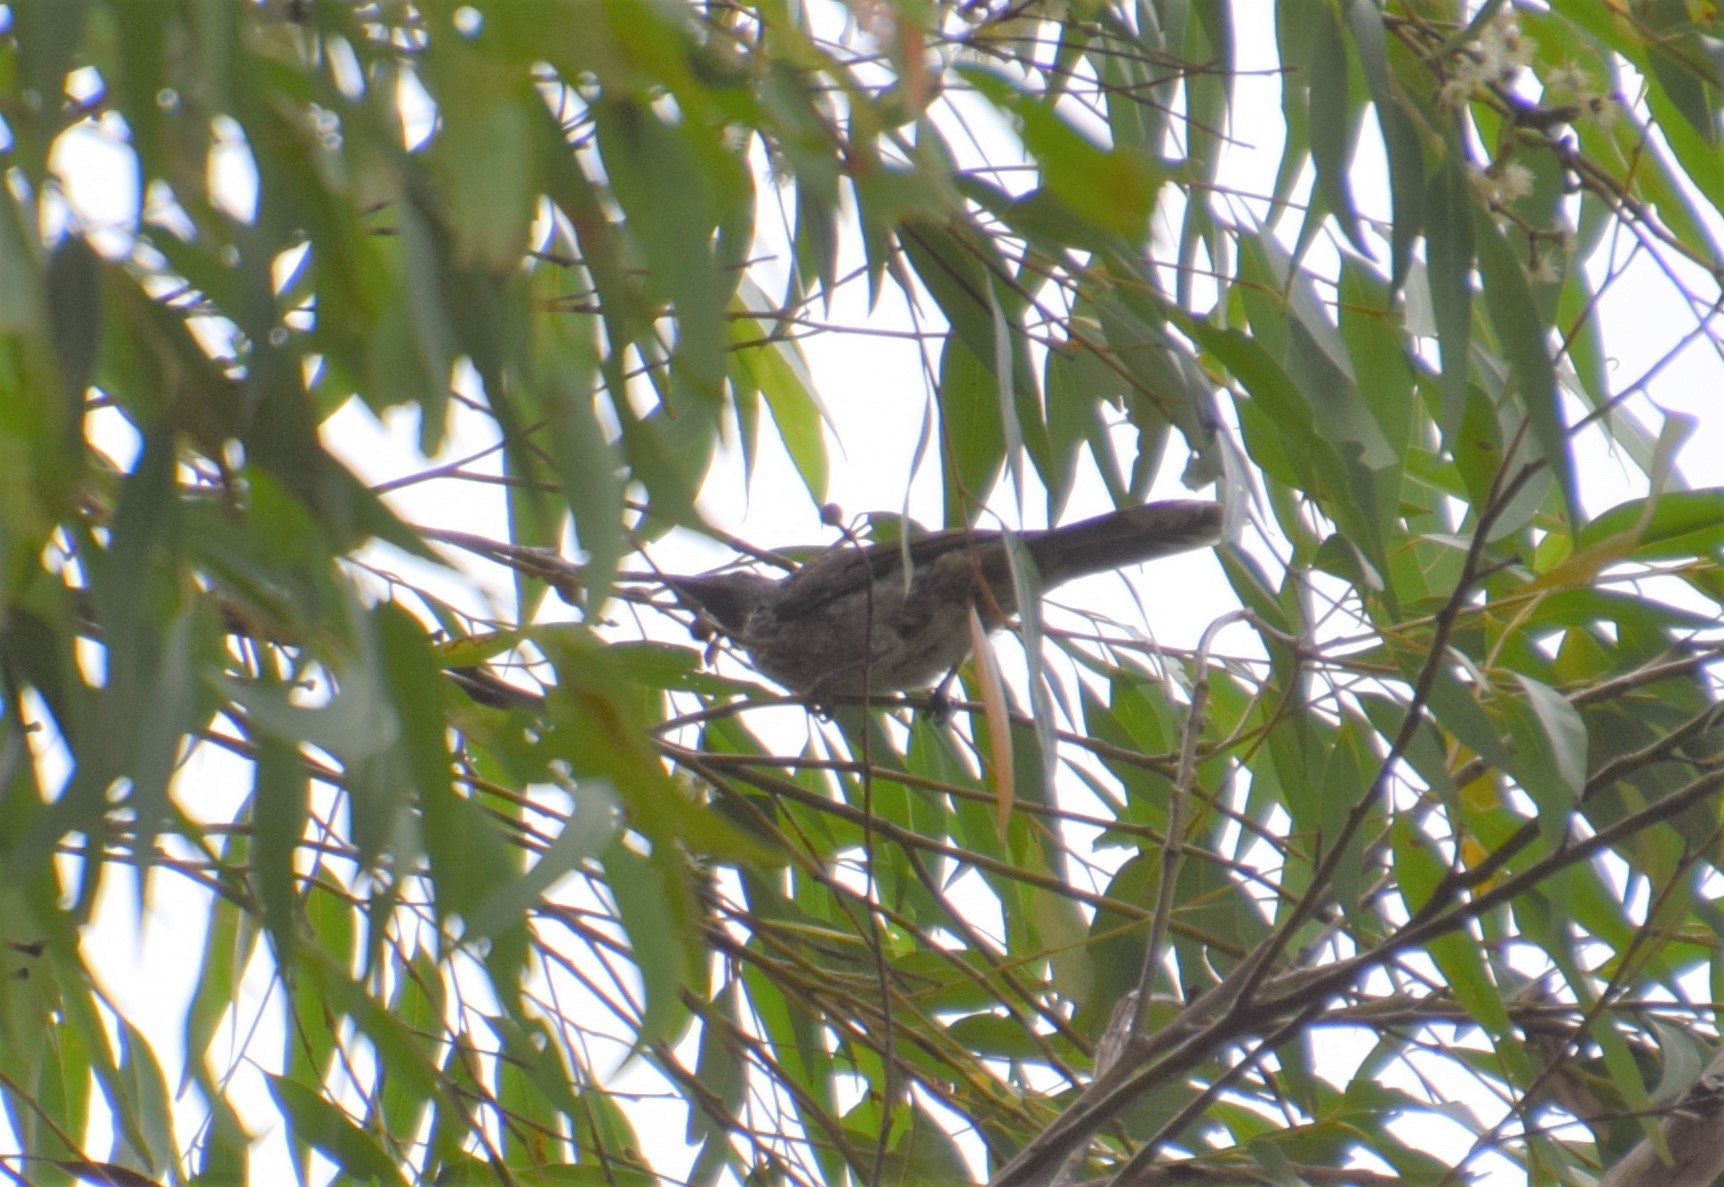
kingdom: Animalia
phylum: Chordata
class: Aves
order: Passeriformes
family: Meliphagidae
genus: Anthochaera
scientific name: Anthochaera chrysoptera
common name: Little wattlebird
